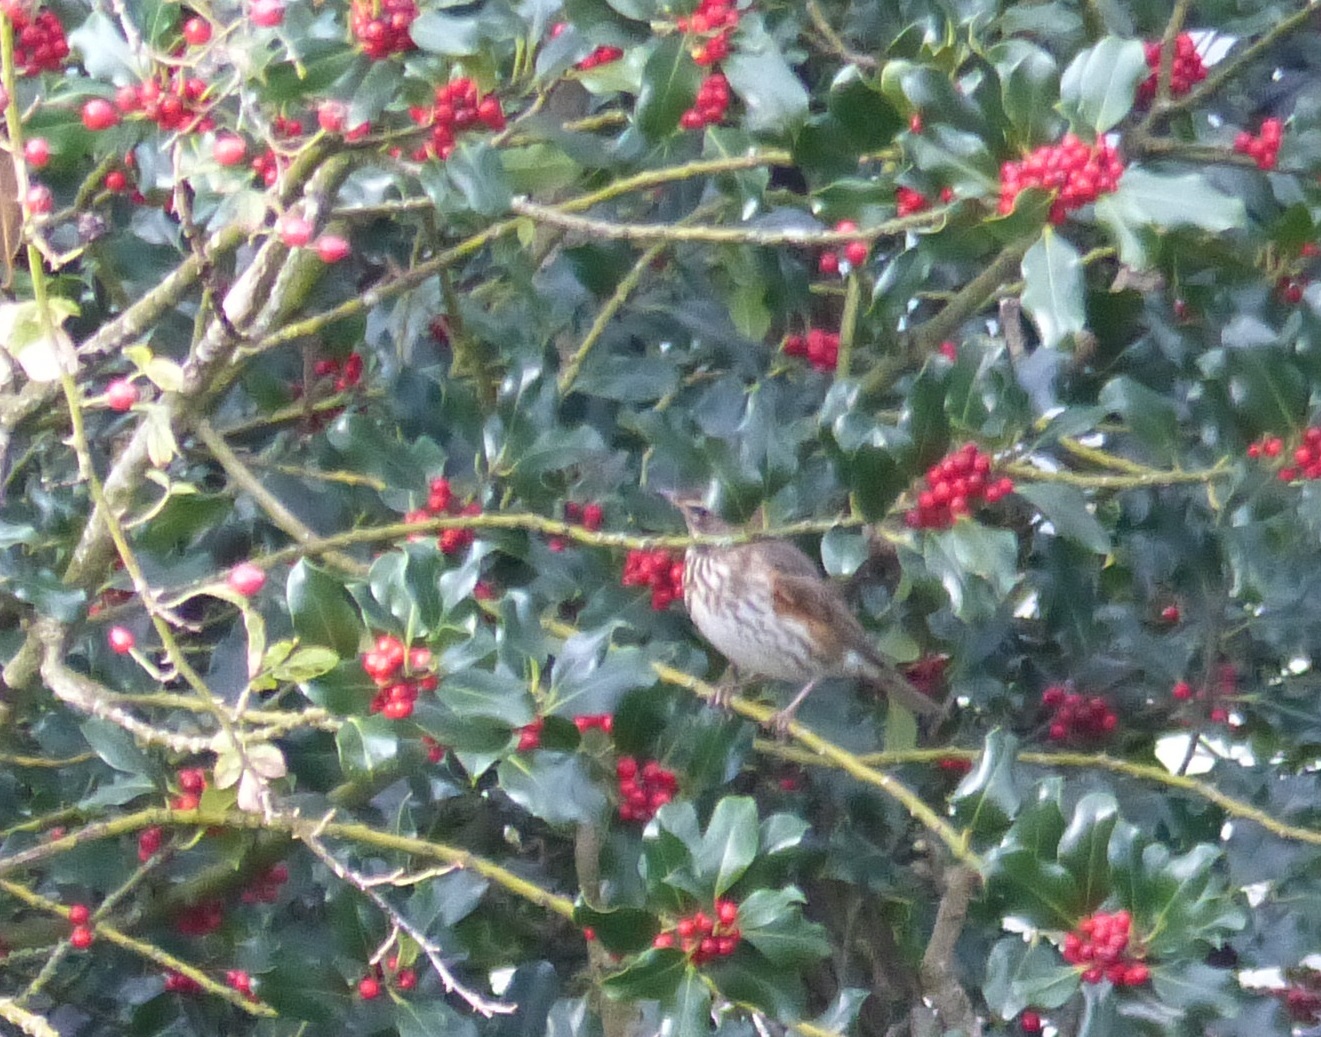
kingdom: Animalia
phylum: Chordata
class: Aves
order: Passeriformes
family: Turdidae
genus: Turdus
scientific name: Turdus iliacus
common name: Redwing
